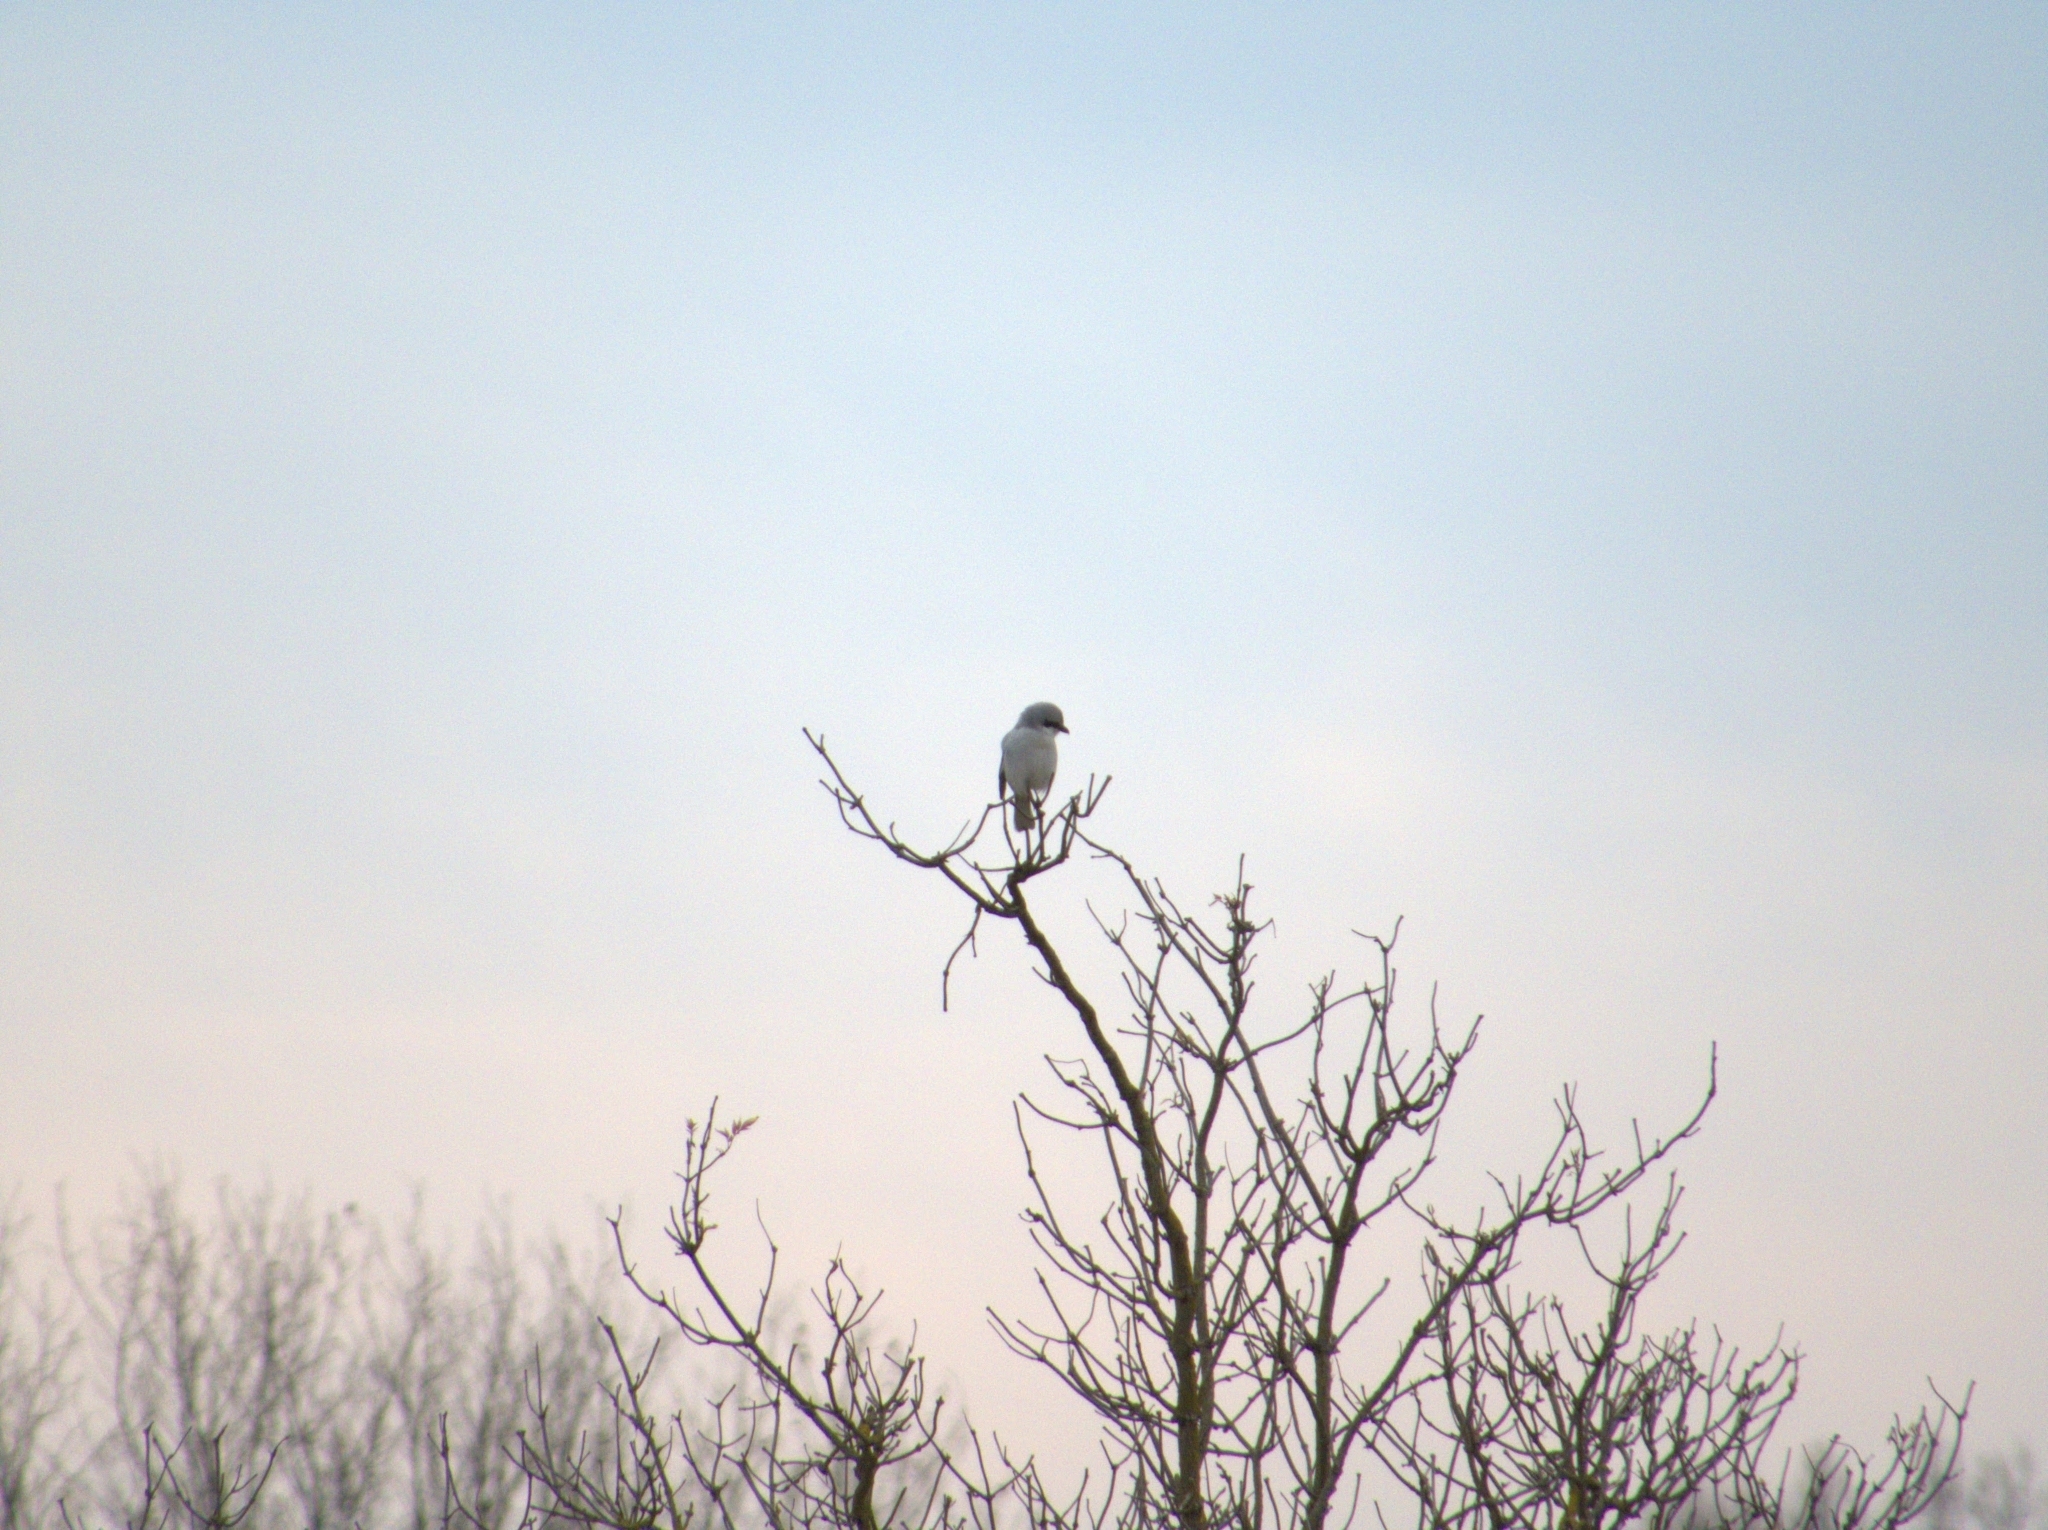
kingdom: Animalia
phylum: Chordata
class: Aves
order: Passeriformes
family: Laniidae
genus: Lanius
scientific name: Lanius excubitor
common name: Great grey shrike
